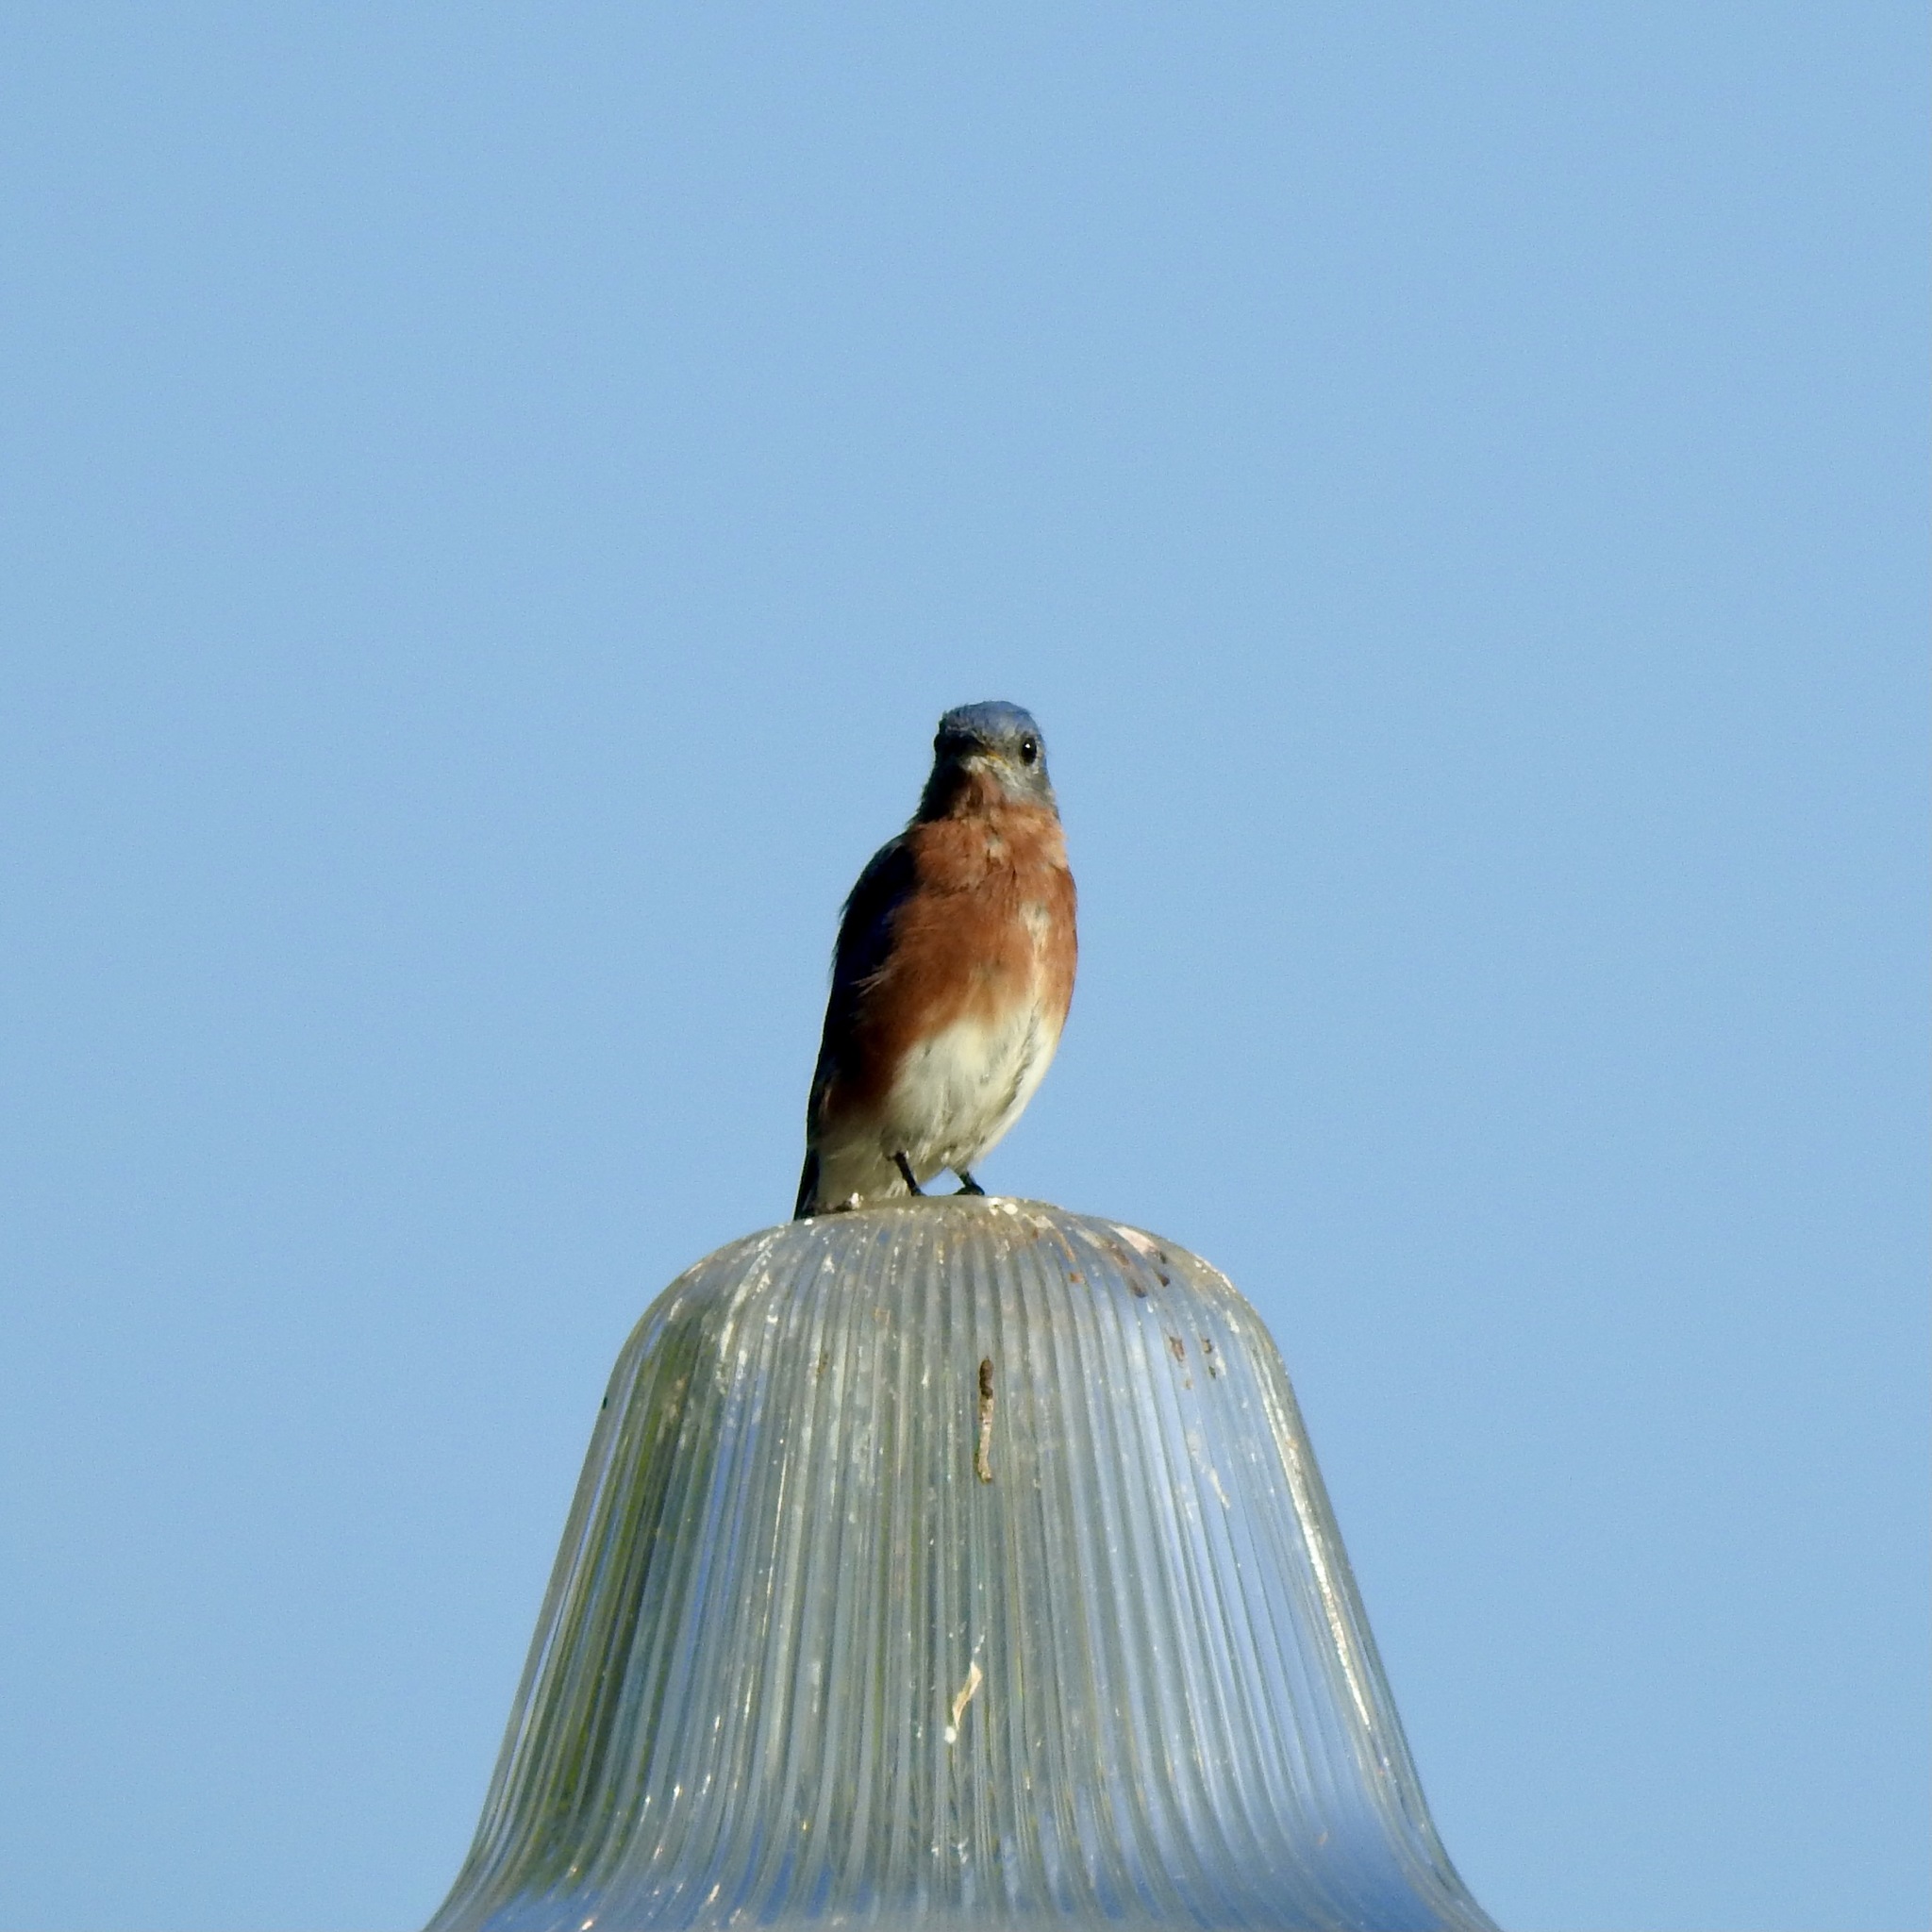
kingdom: Animalia
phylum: Chordata
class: Aves
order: Passeriformes
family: Turdidae
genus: Sialia
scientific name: Sialia sialis
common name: Eastern bluebird
